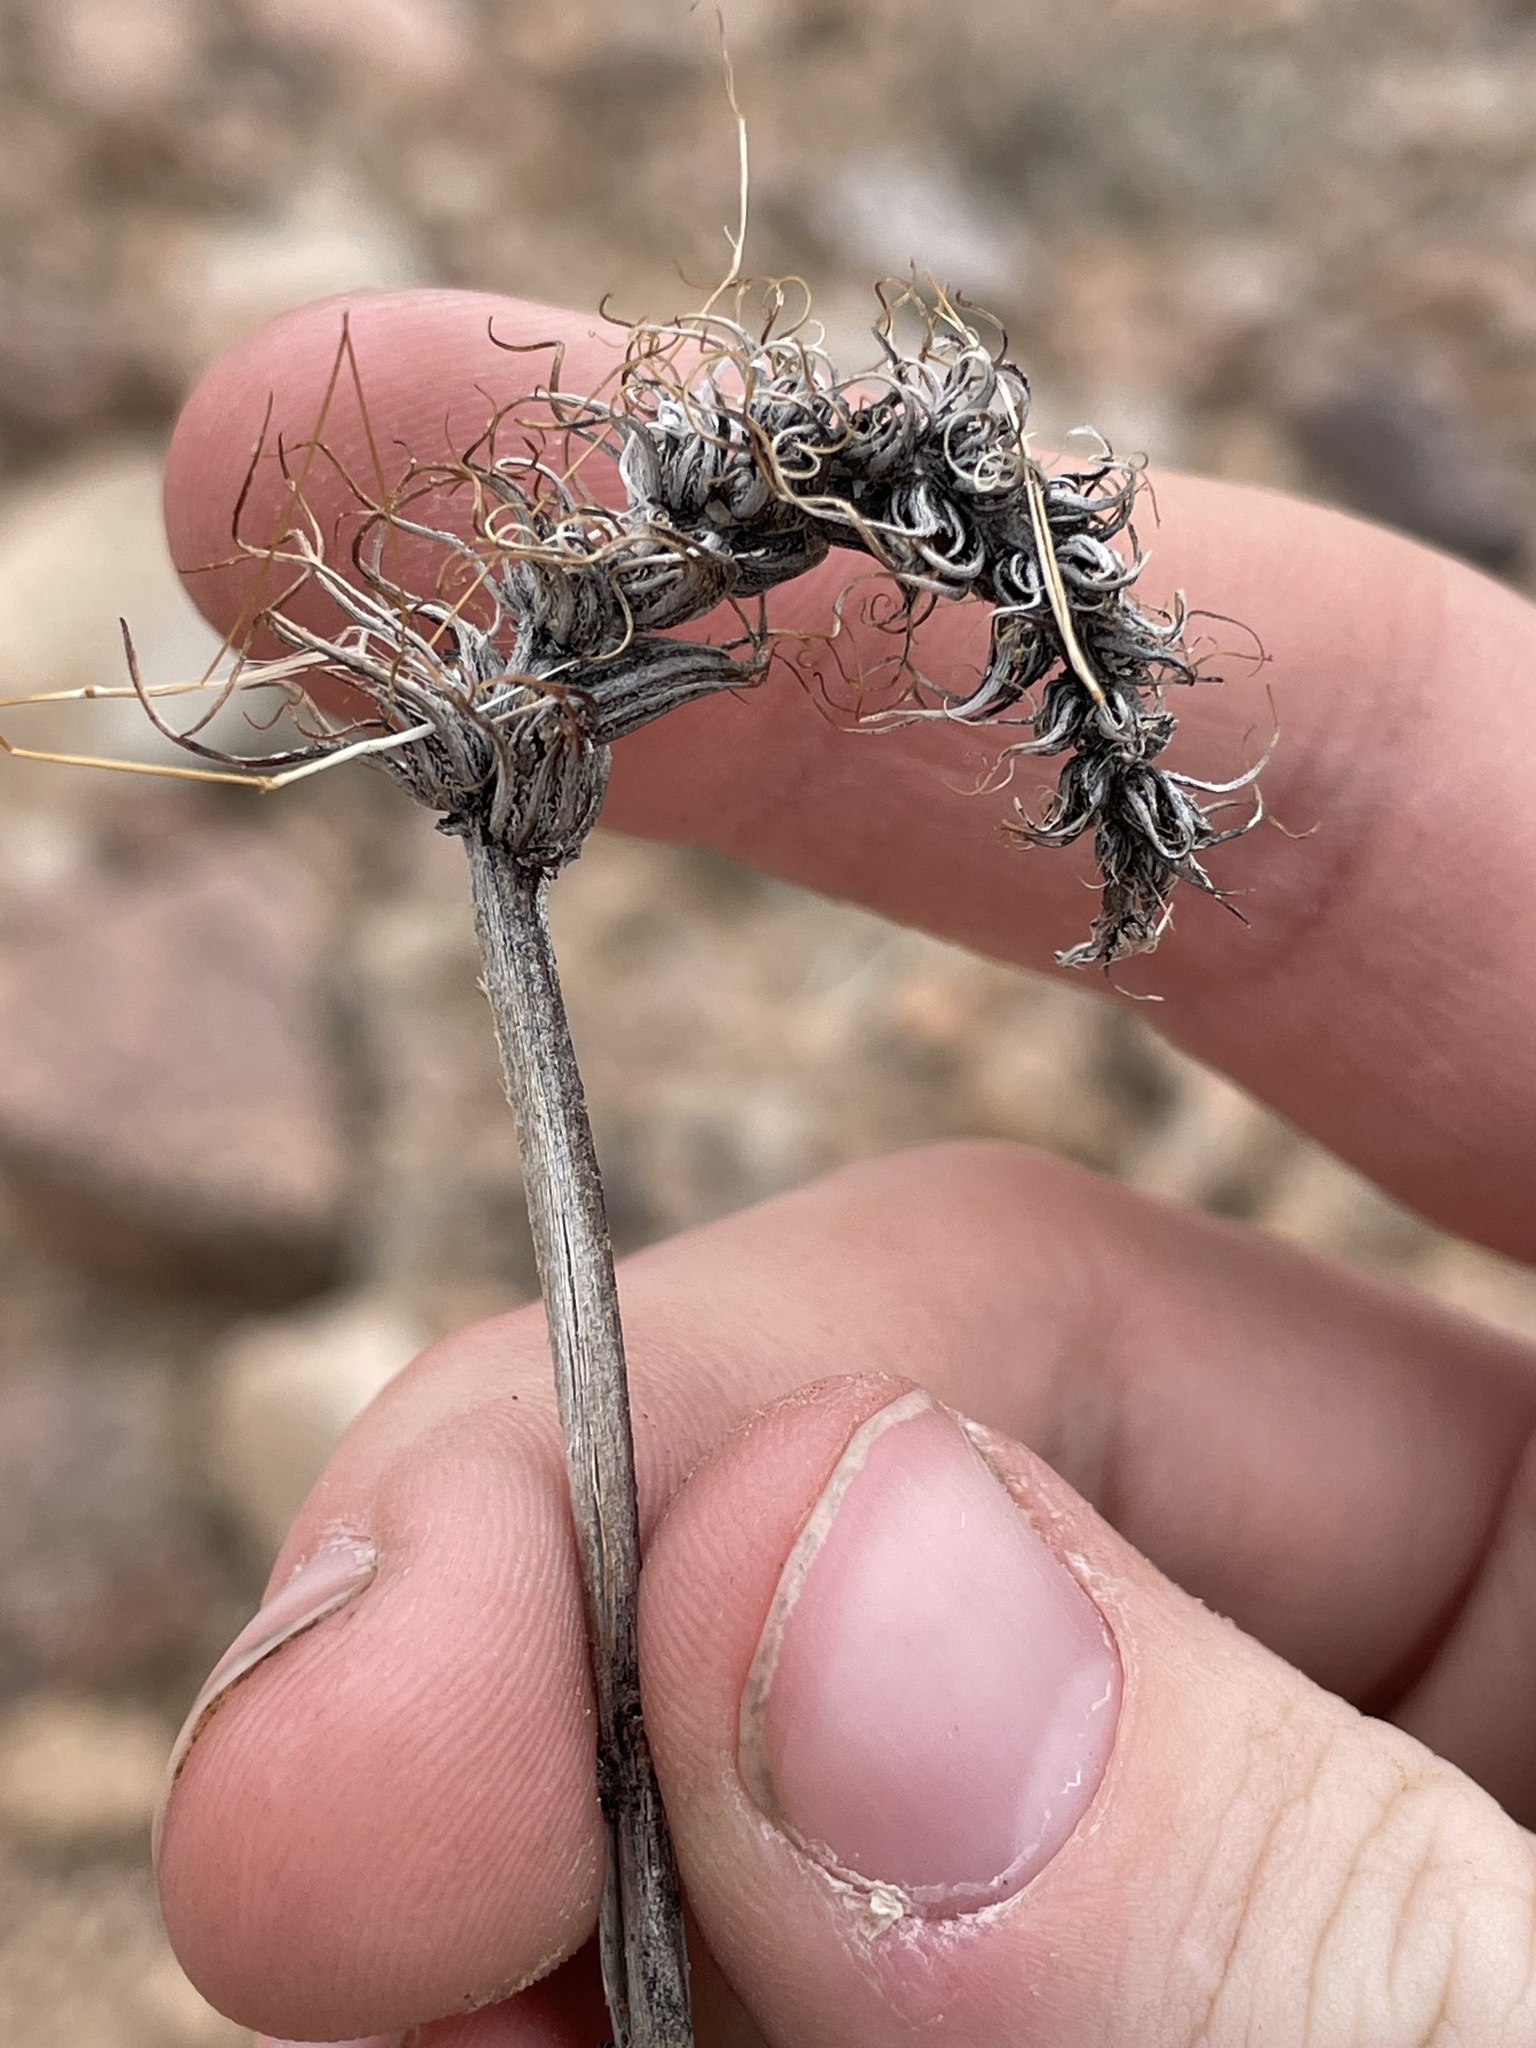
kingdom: Plantae
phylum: Tracheophyta
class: Magnoliopsida
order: Myrtales
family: Onagraceae
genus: Eremothera
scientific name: Eremothera boothii
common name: Booth's evening primrose
